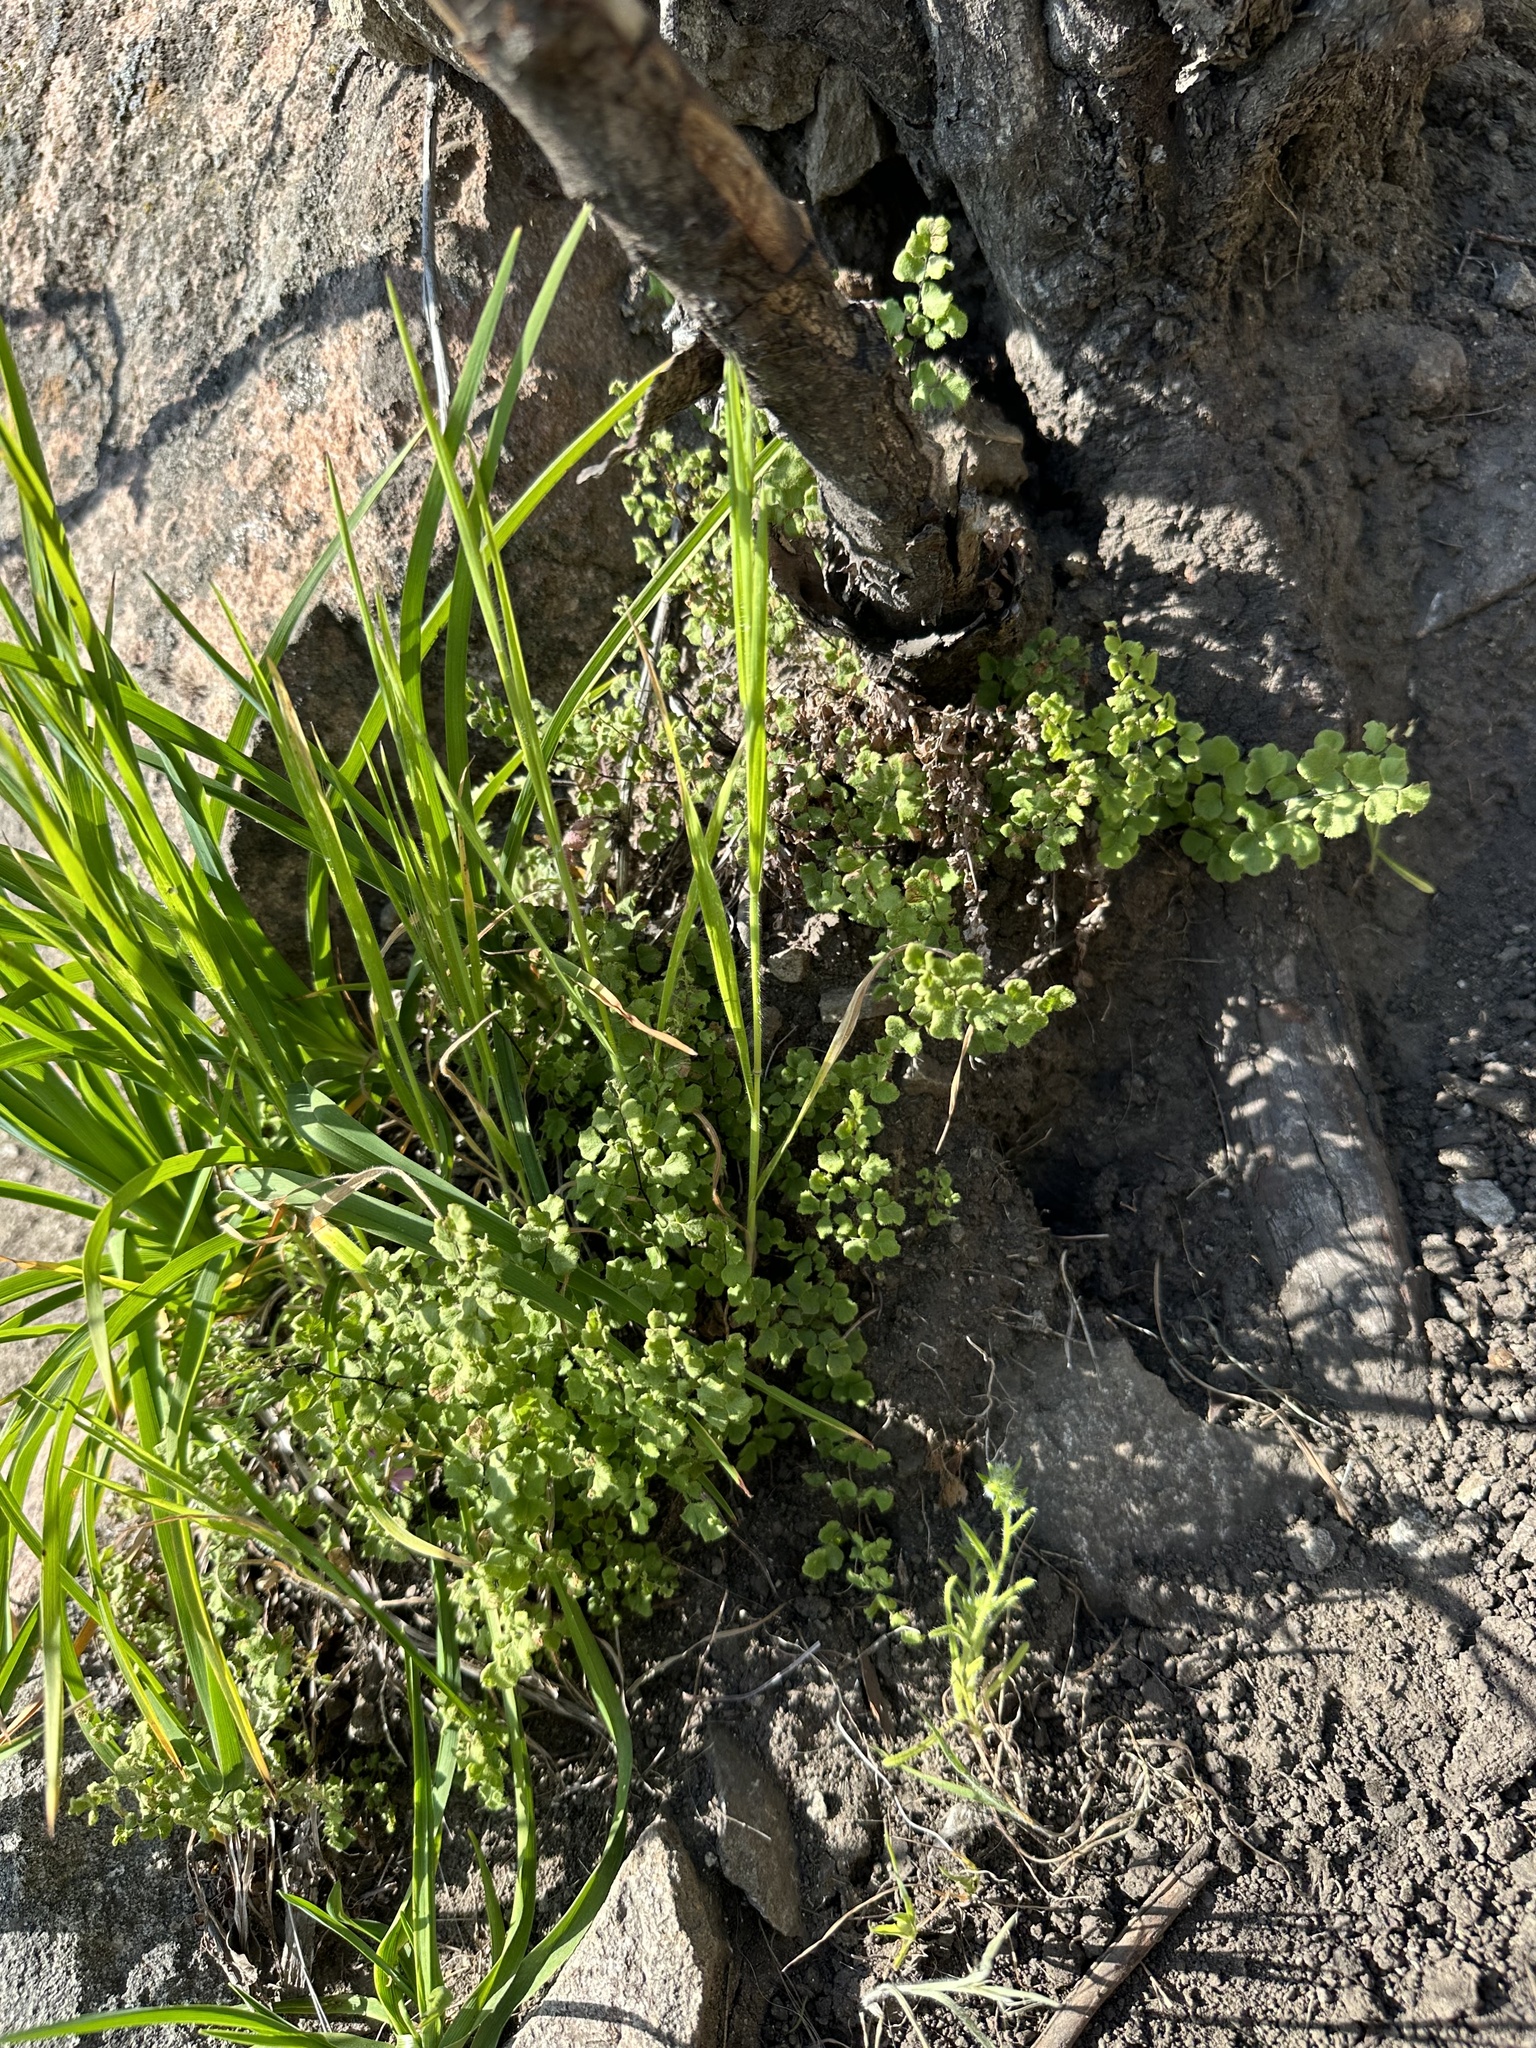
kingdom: Plantae
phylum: Tracheophyta
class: Polypodiopsida
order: Polypodiales
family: Pteridaceae
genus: Adiantum
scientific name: Adiantum chilense
